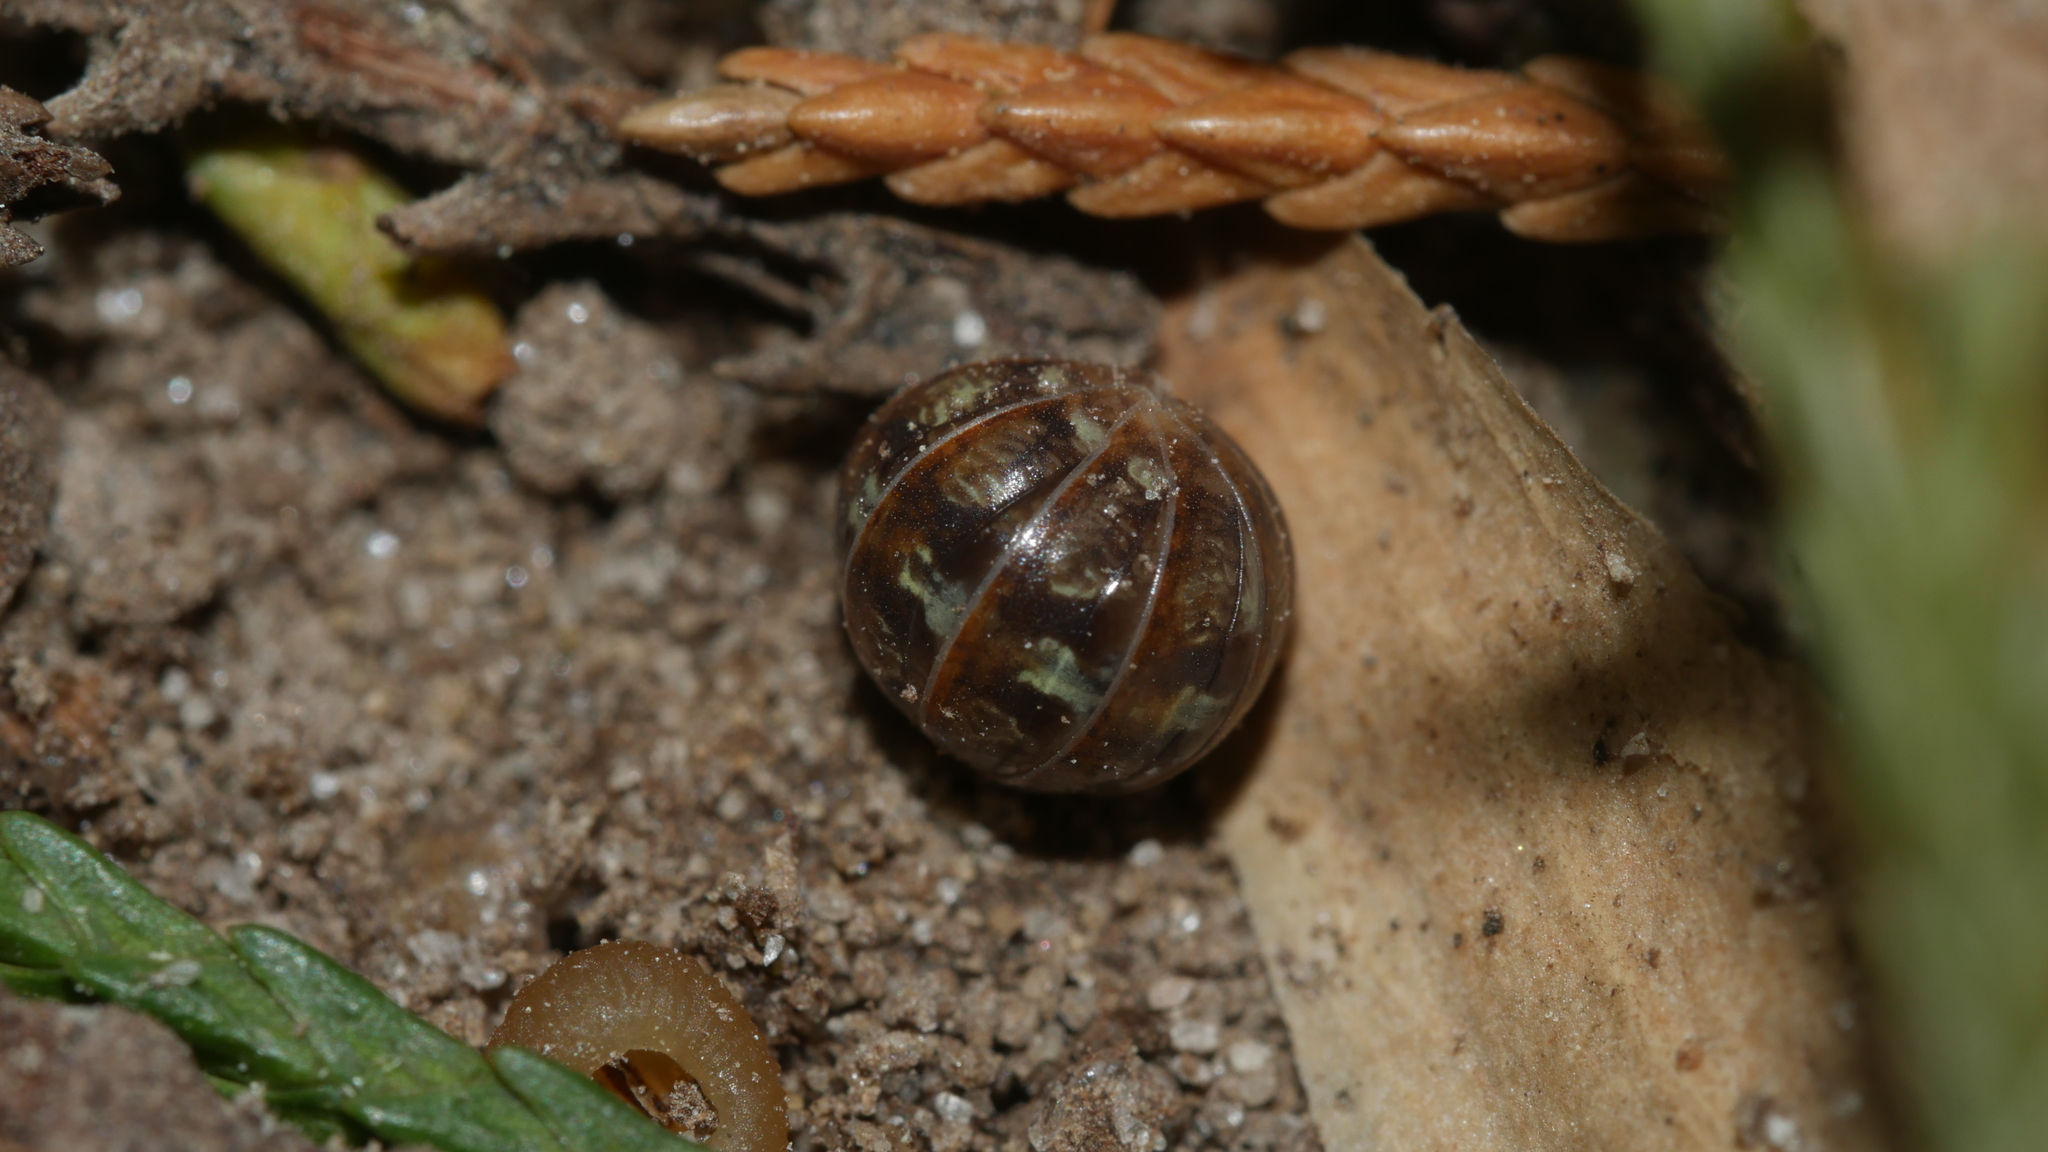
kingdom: Animalia
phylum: Arthropoda
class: Malacostraca
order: Isopoda
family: Armadillidiidae
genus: Armadillidium
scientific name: Armadillidium vulgare
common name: Common pill woodlouse
